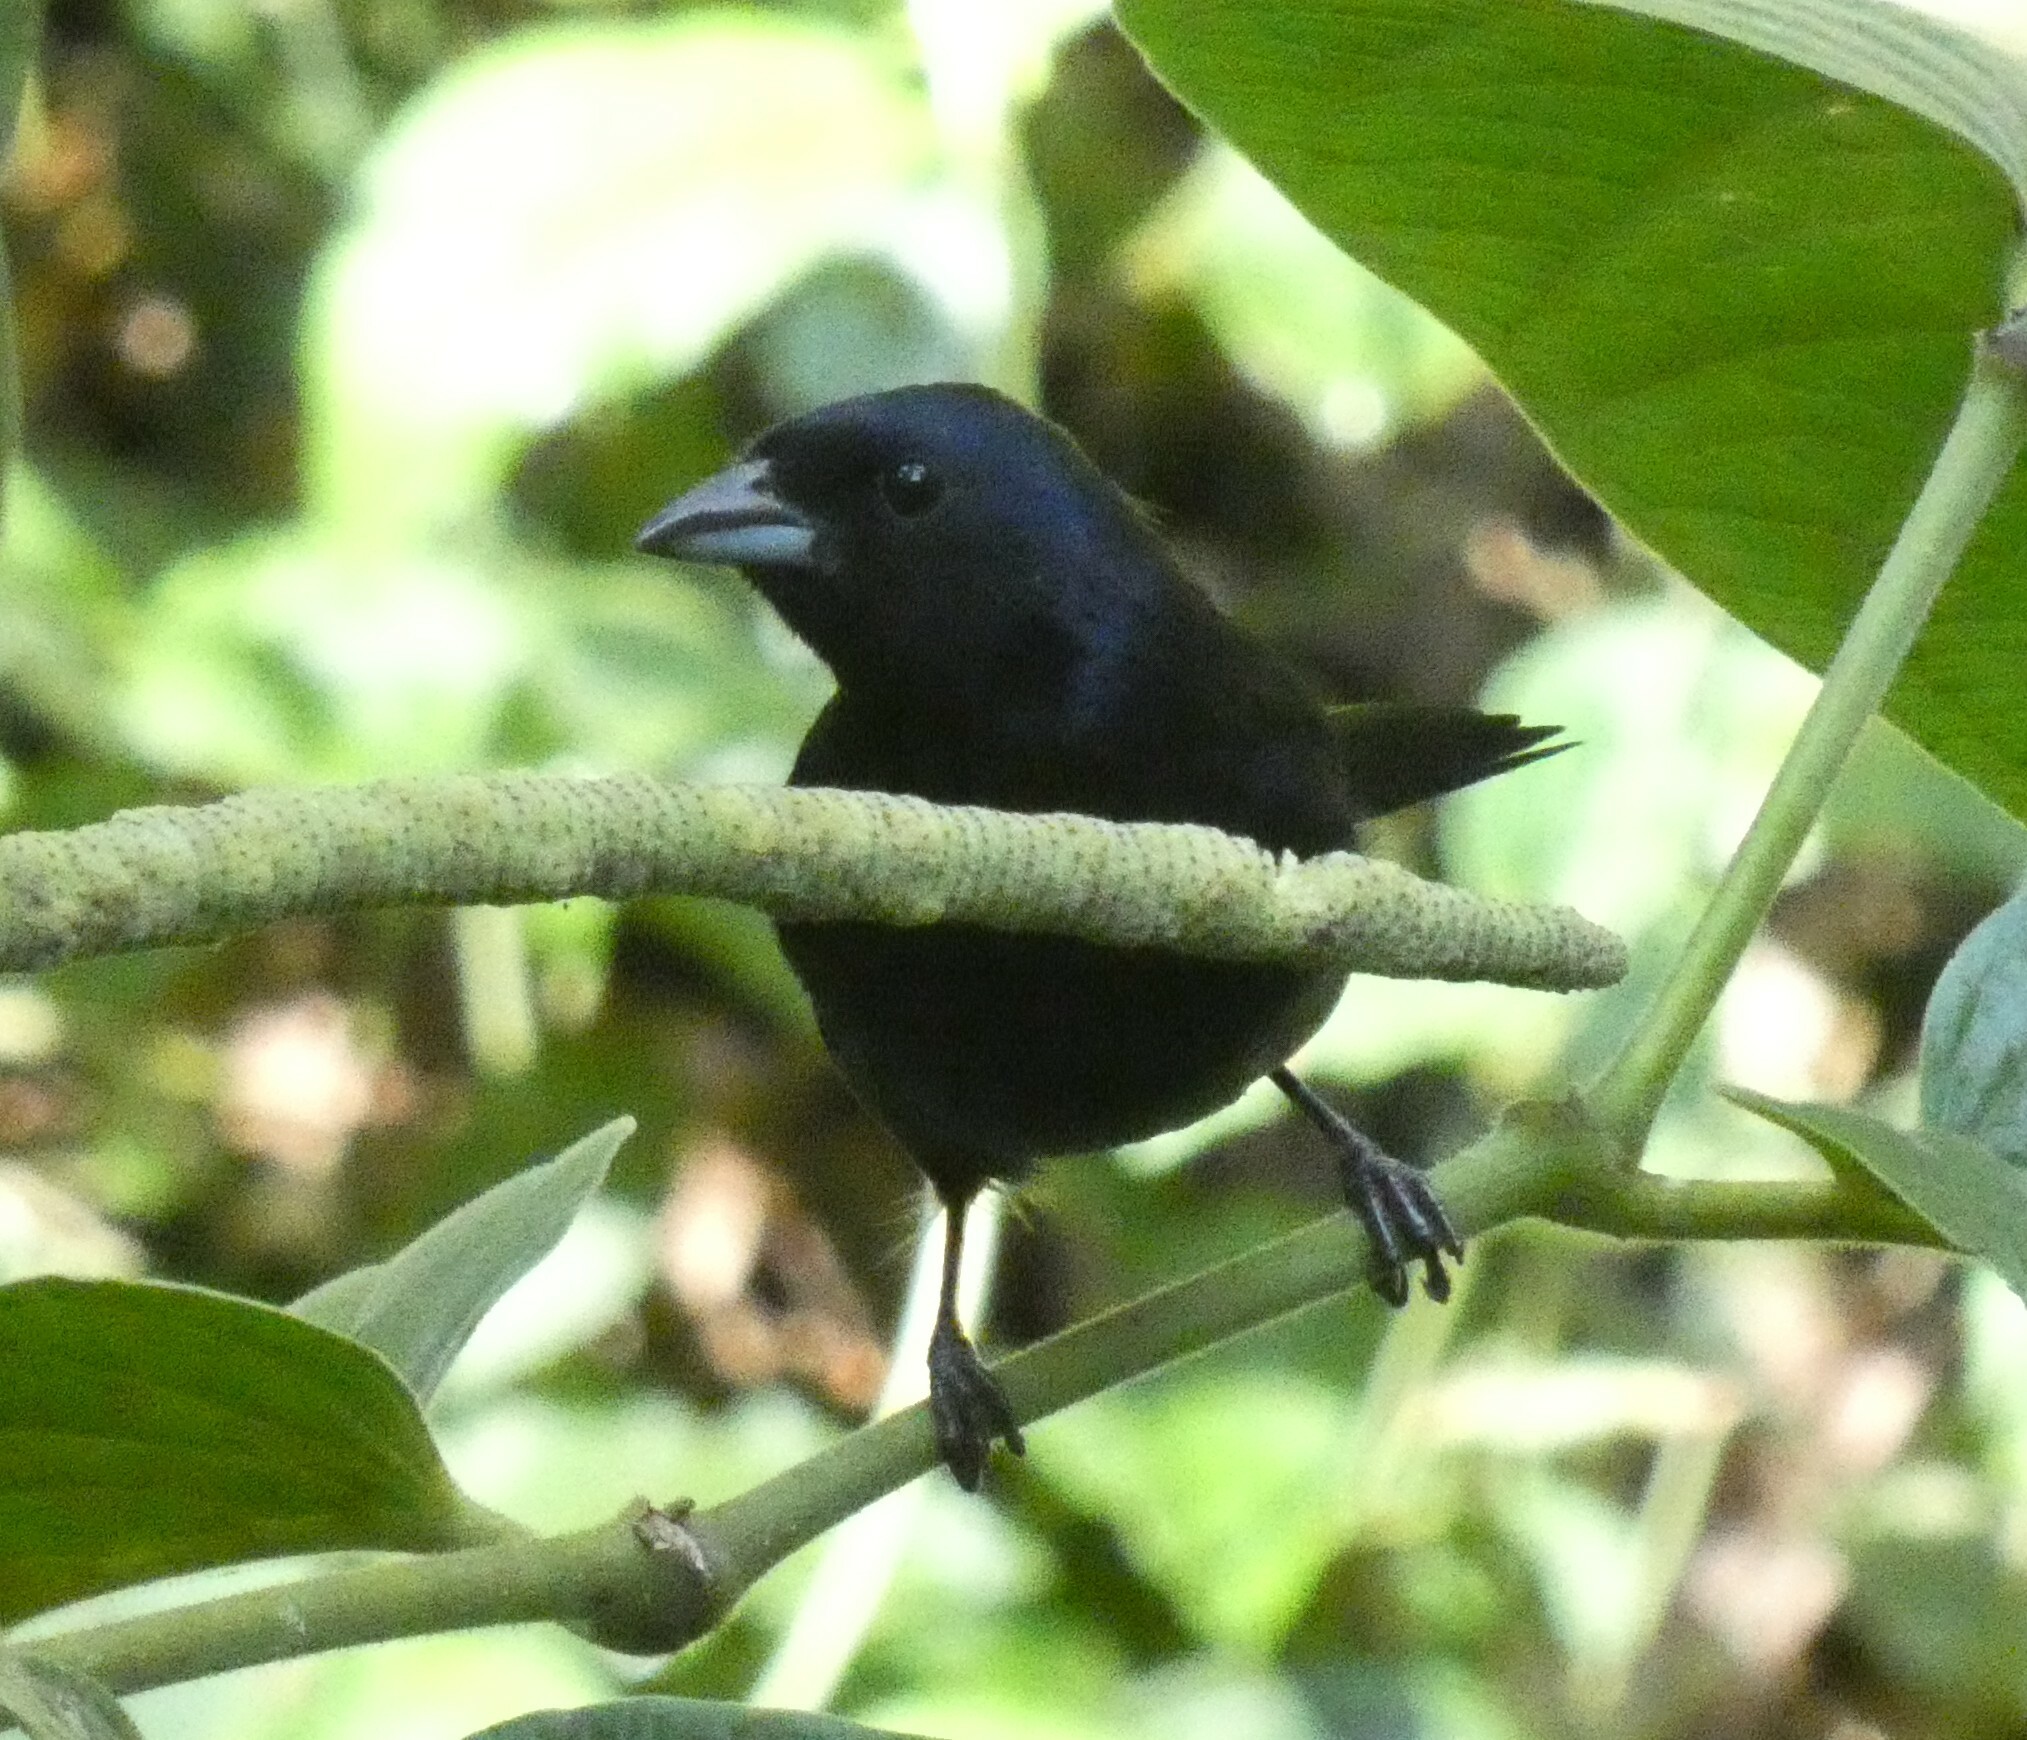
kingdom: Animalia
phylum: Chordata
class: Aves
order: Passeriformes
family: Thraupidae
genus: Tachyphonus
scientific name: Tachyphonus coronatus
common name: Ruby-crowned tanager
